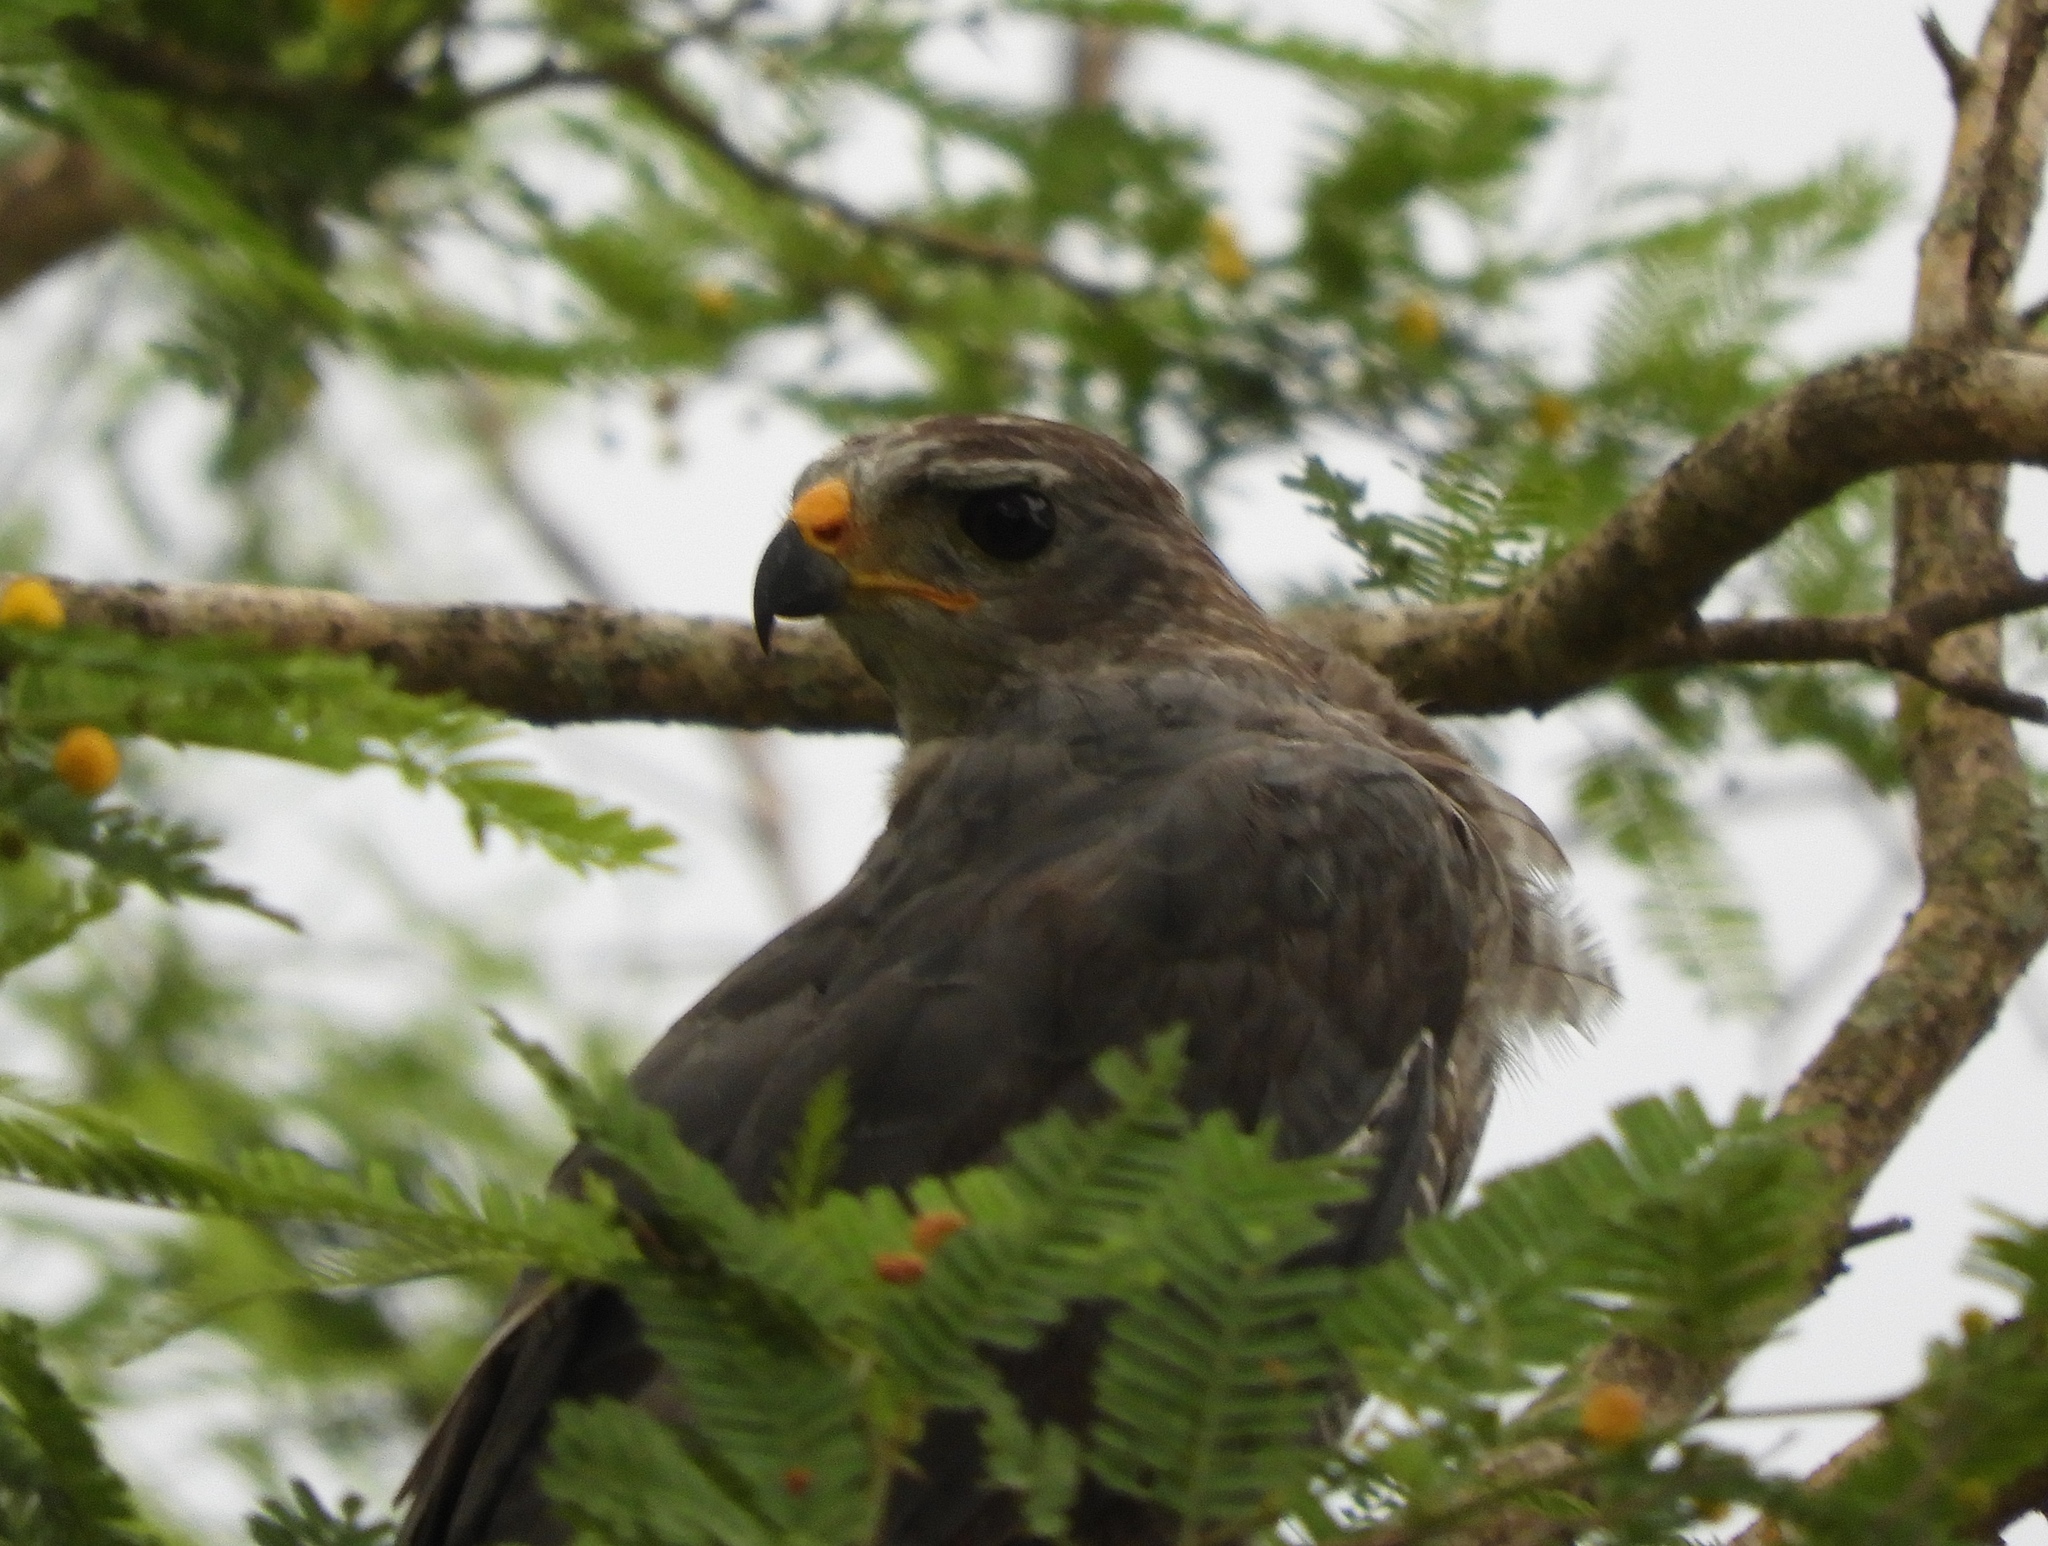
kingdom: Animalia
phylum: Chordata
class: Aves
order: Accipitriformes
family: Accipitridae
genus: Buteo
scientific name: Buteo nitidus
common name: Grey-lined hawk
